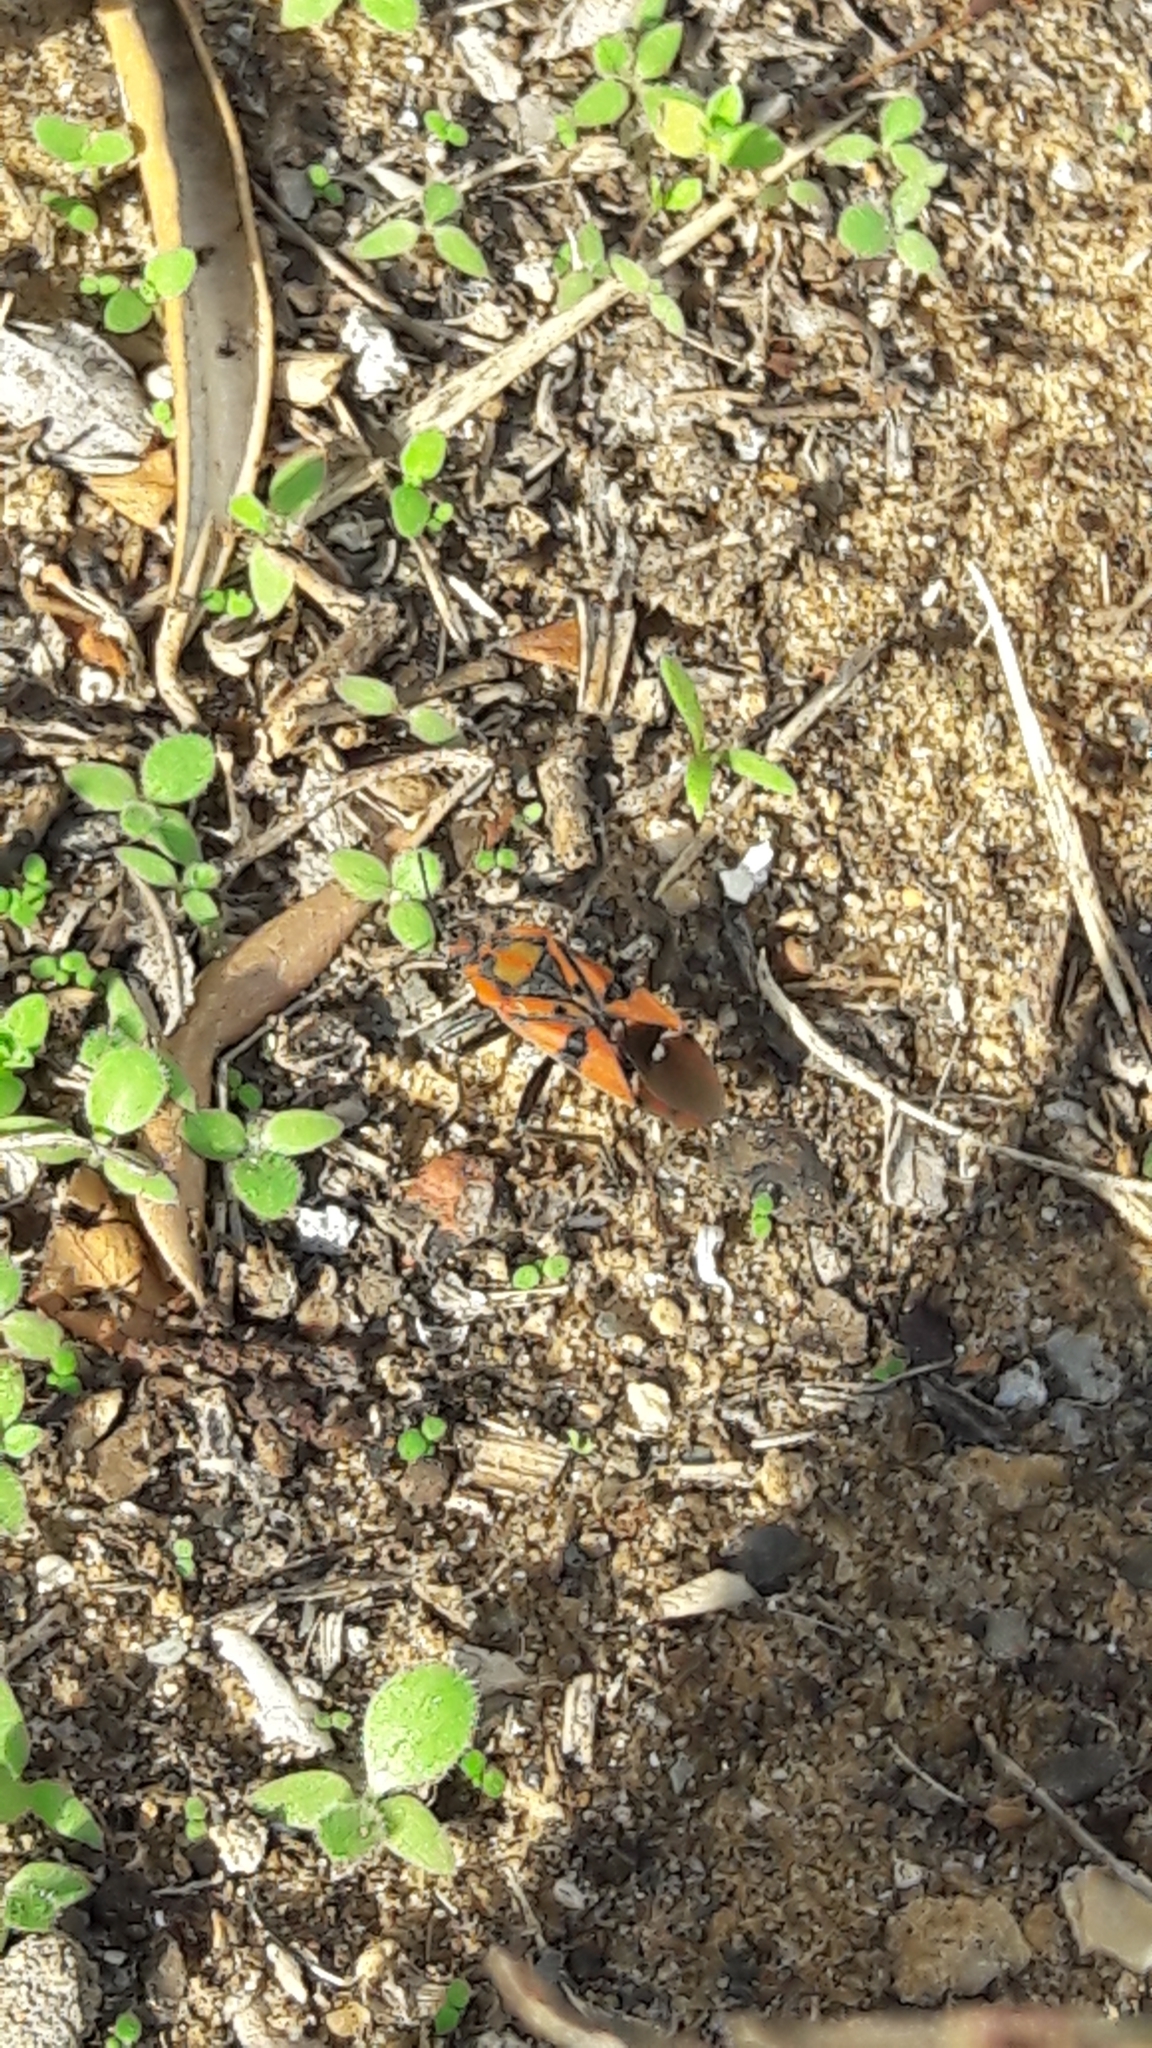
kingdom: Animalia
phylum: Arthropoda
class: Insecta
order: Hemiptera
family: Lygaeidae
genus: Spilostethus
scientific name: Spilostethus pandurus
